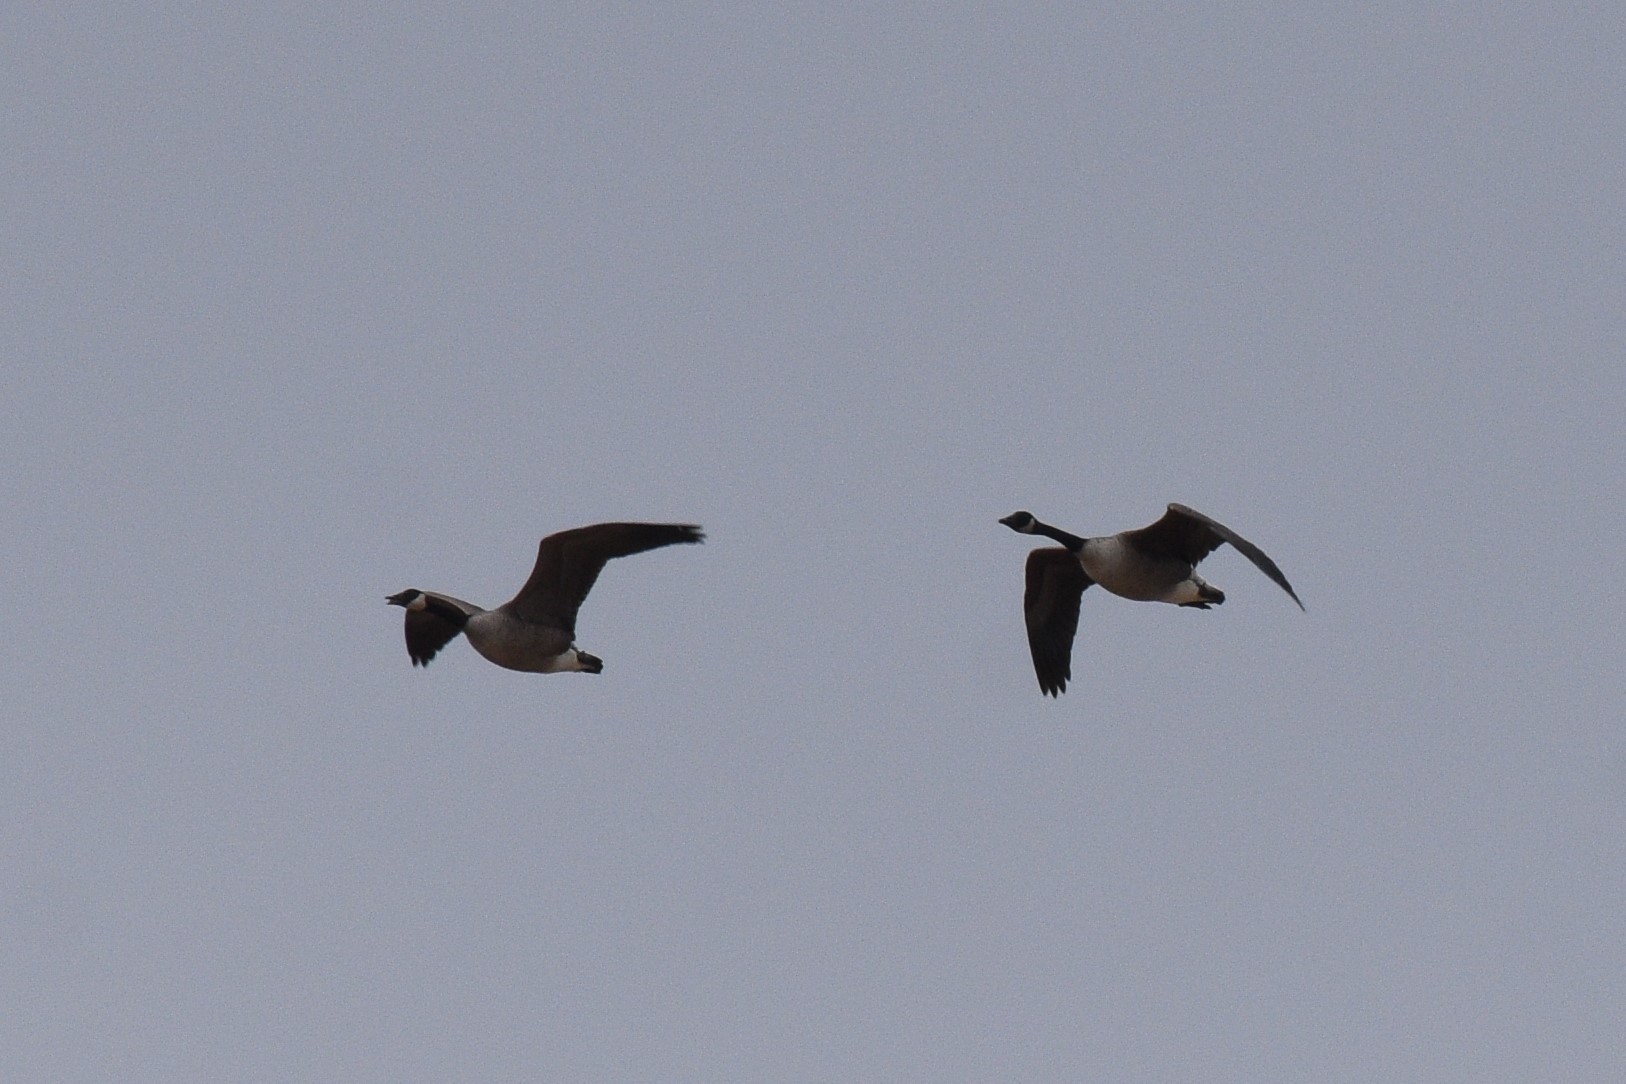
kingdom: Animalia
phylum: Chordata
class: Aves
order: Anseriformes
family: Anatidae
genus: Branta
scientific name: Branta canadensis
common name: Canada goose
